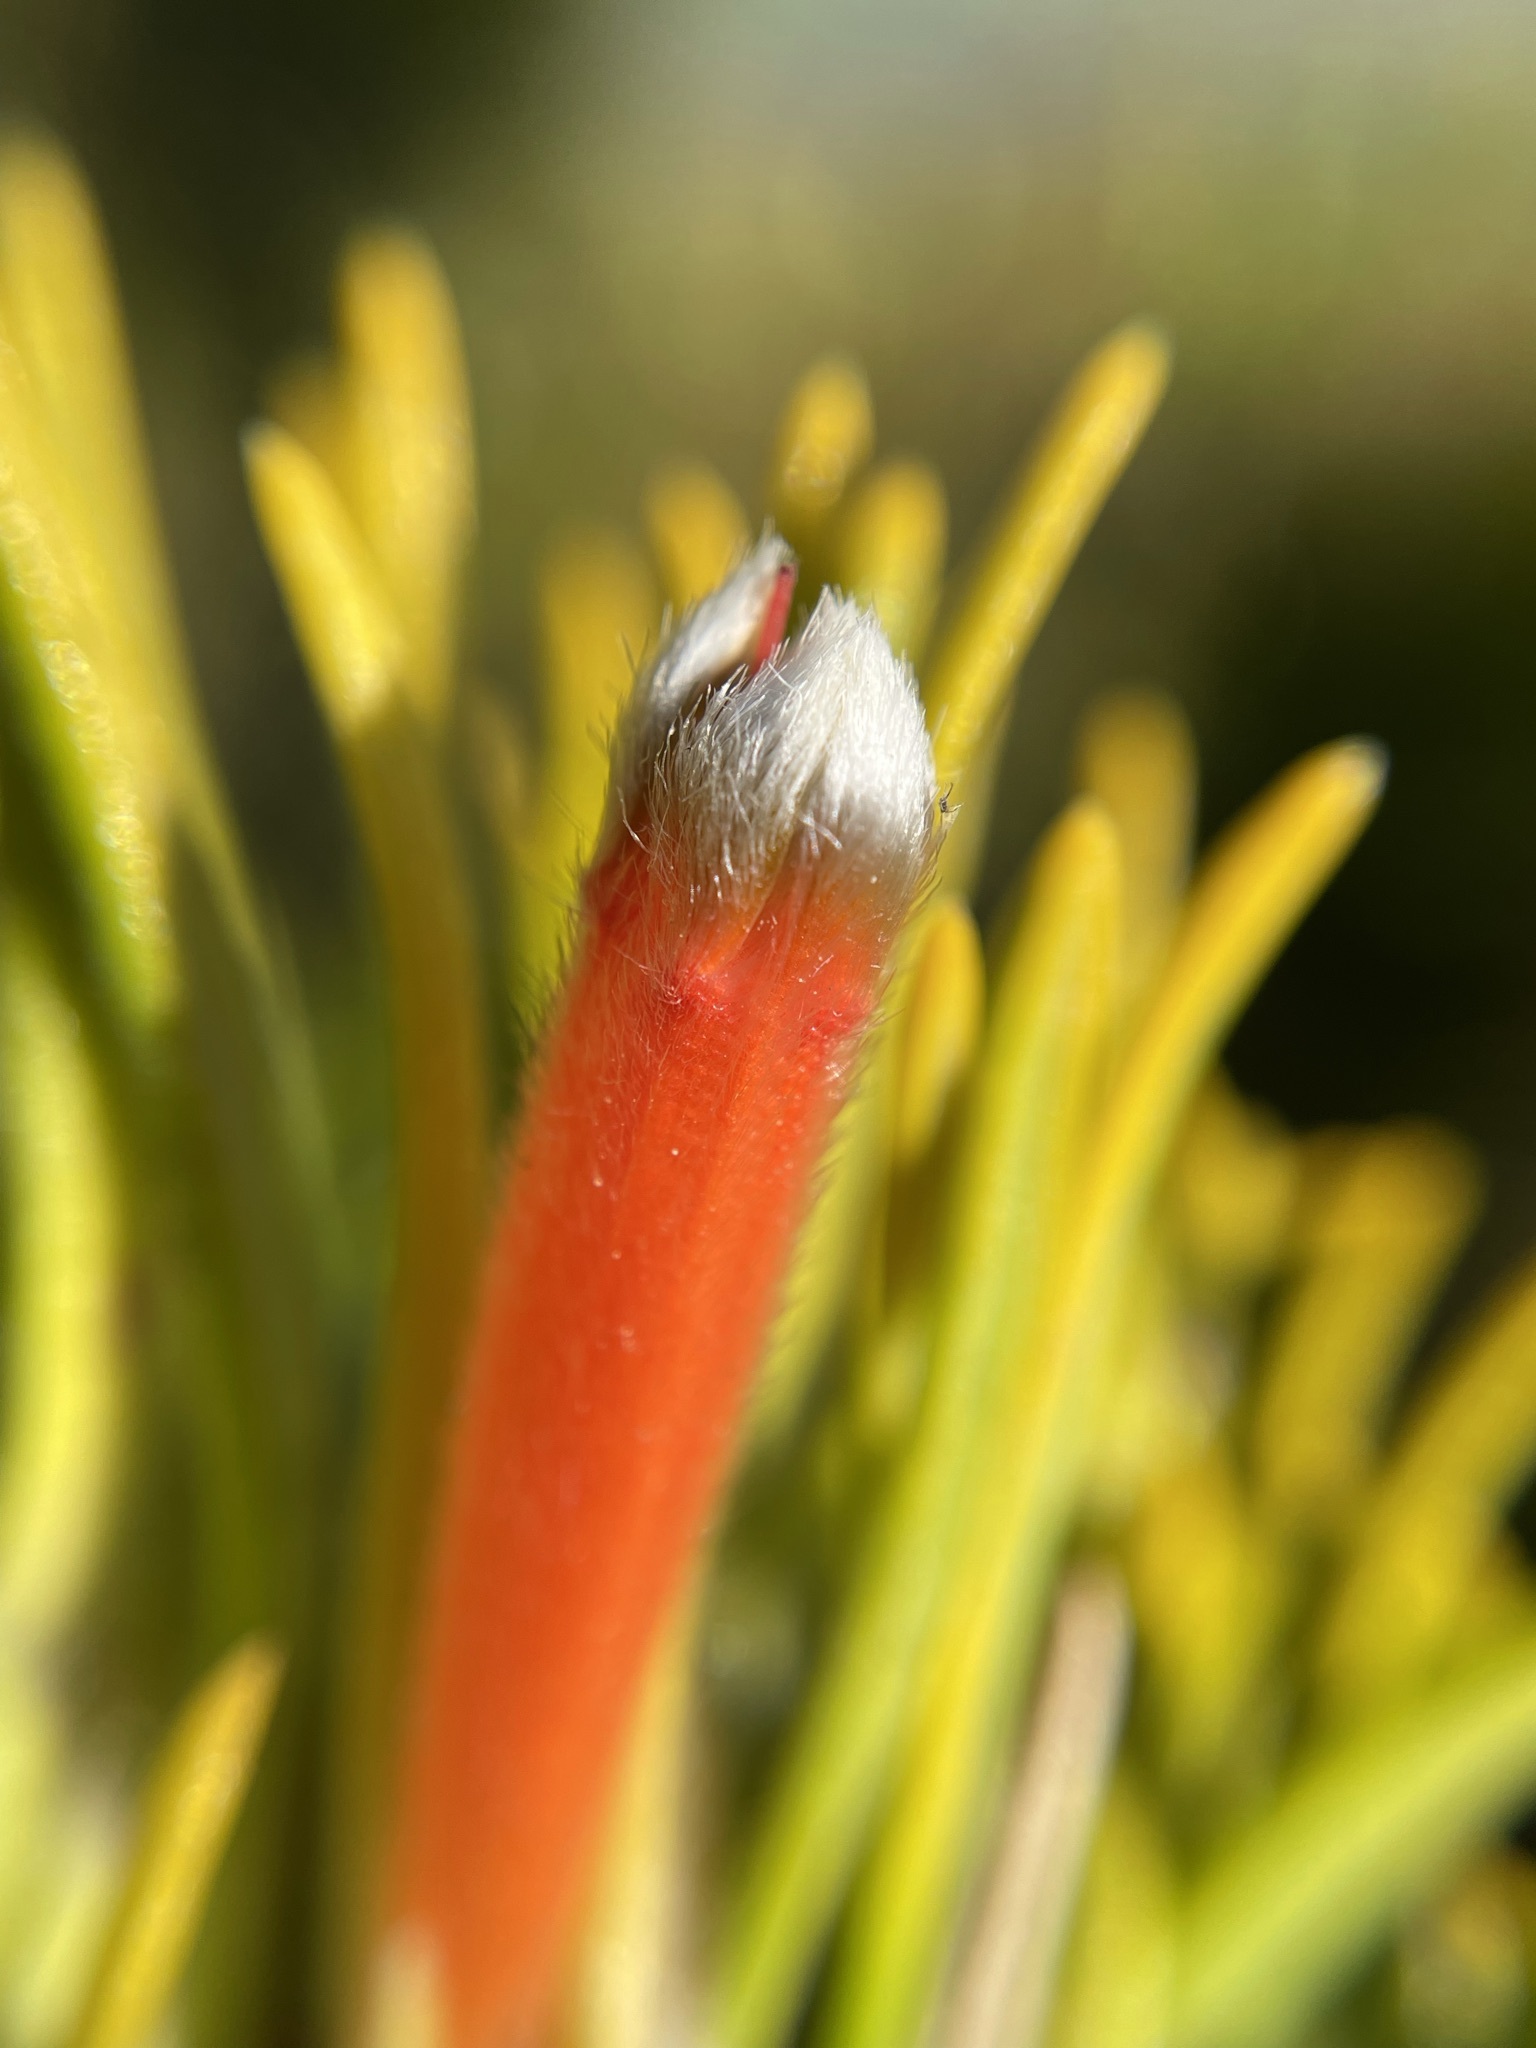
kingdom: Plantae
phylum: Tracheophyta
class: Magnoliopsida
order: Lamiales
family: Stilbaceae
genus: Retzia
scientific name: Retzia capensis
